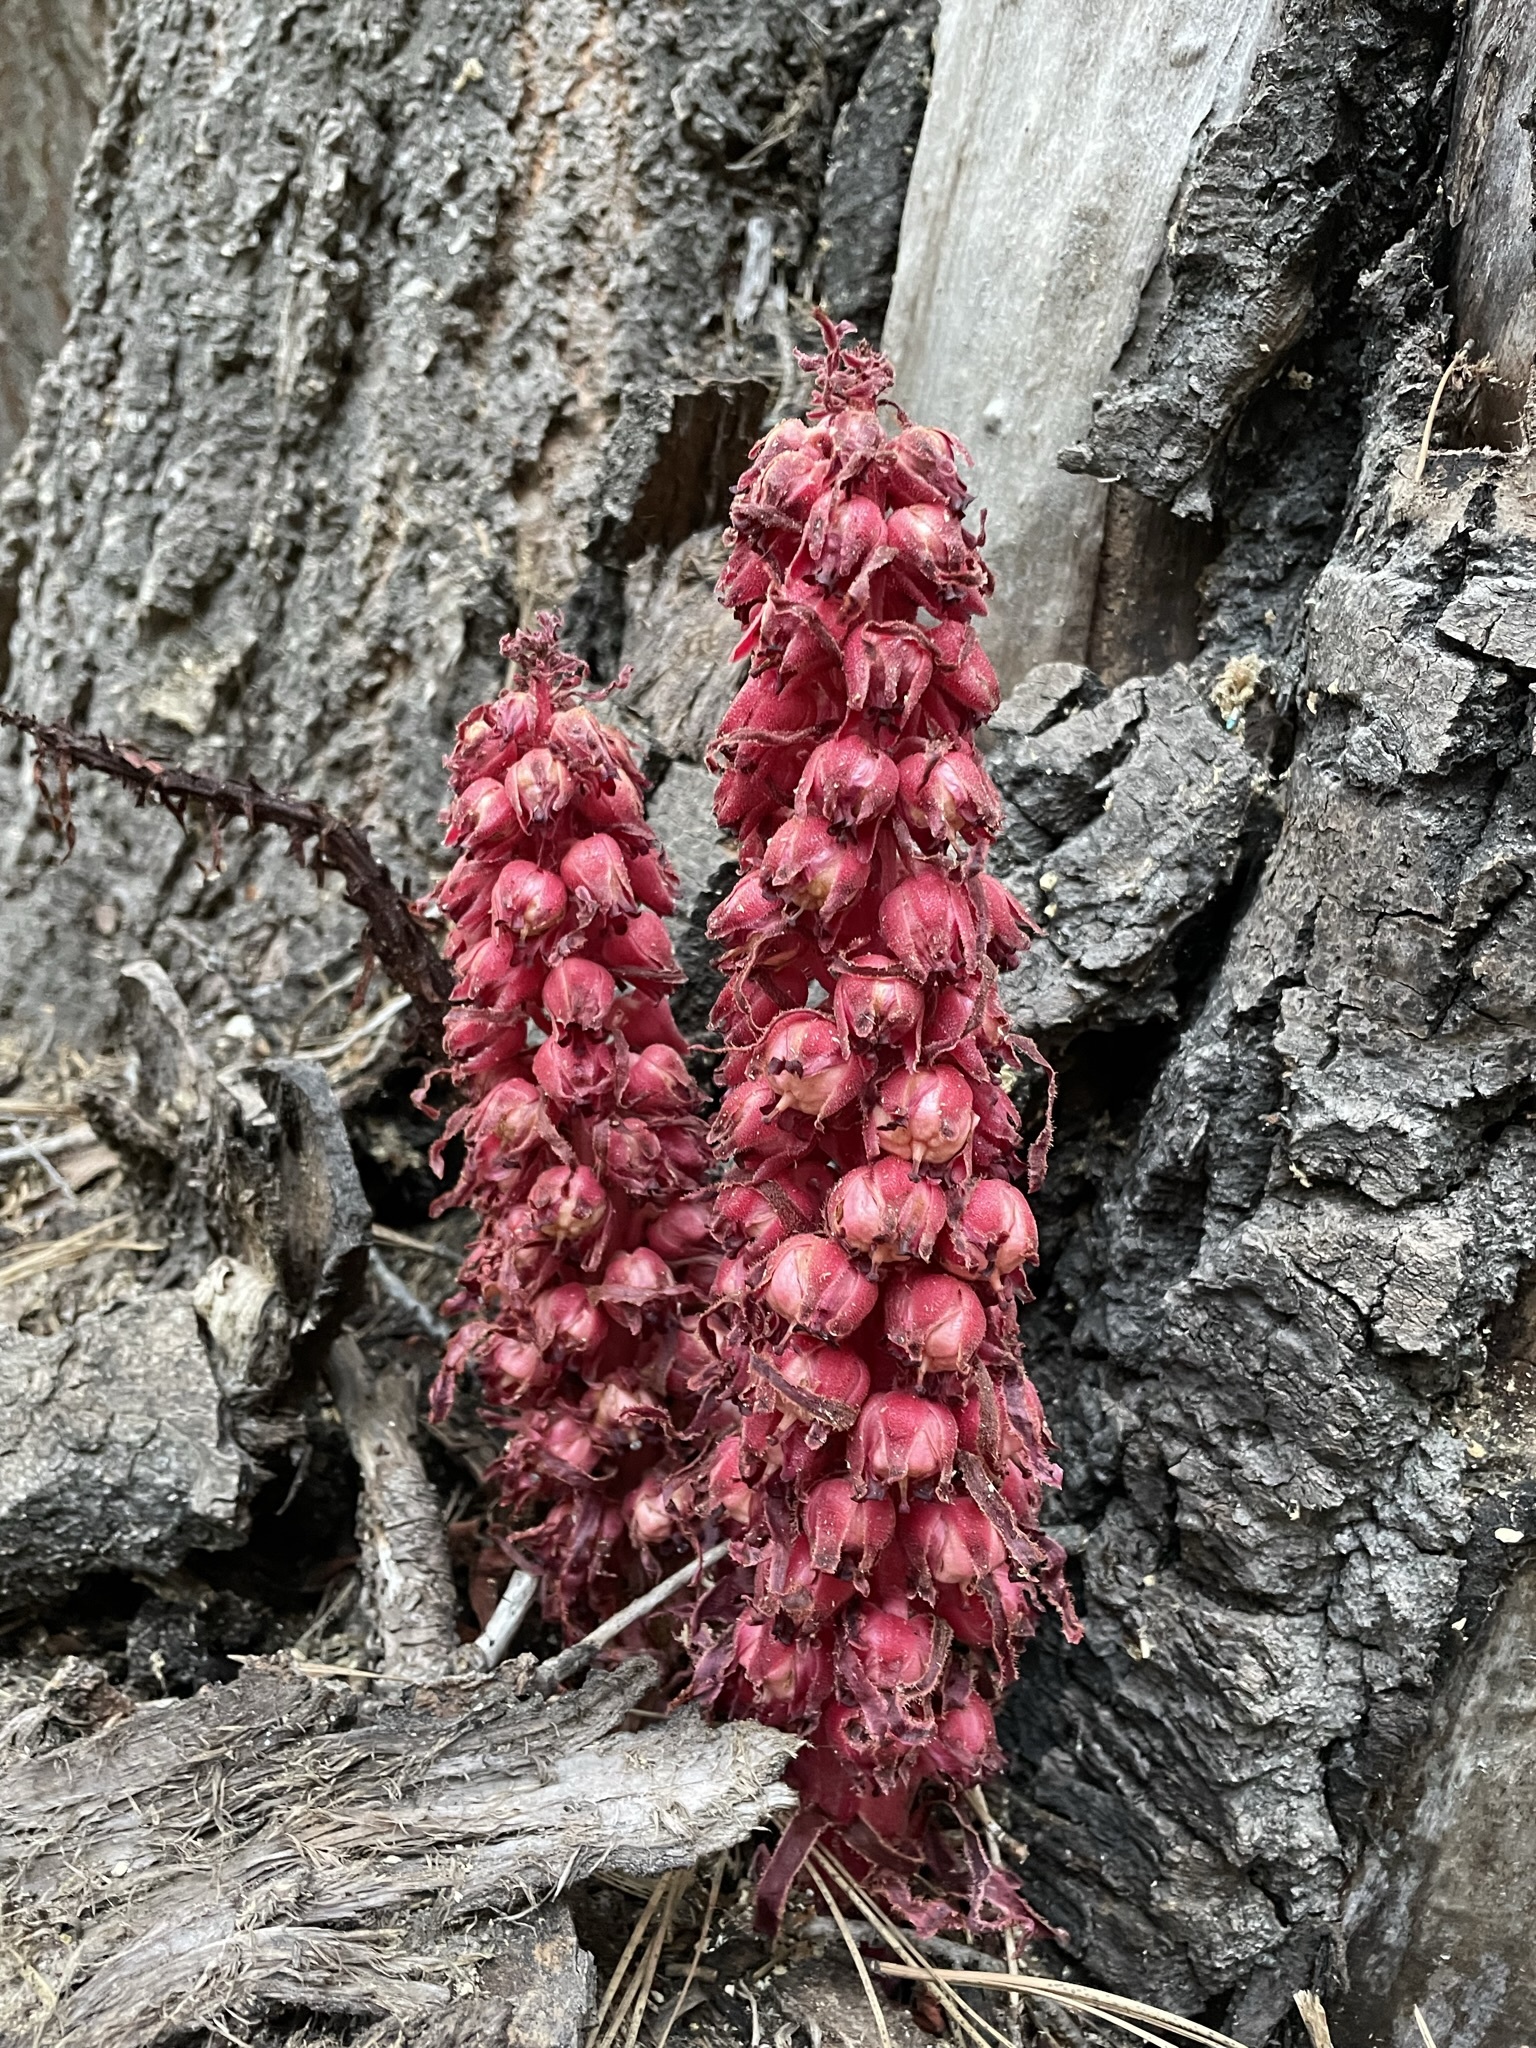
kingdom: Plantae
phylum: Tracheophyta
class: Magnoliopsida
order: Ericales
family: Ericaceae
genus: Sarcodes
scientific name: Sarcodes sanguinea
